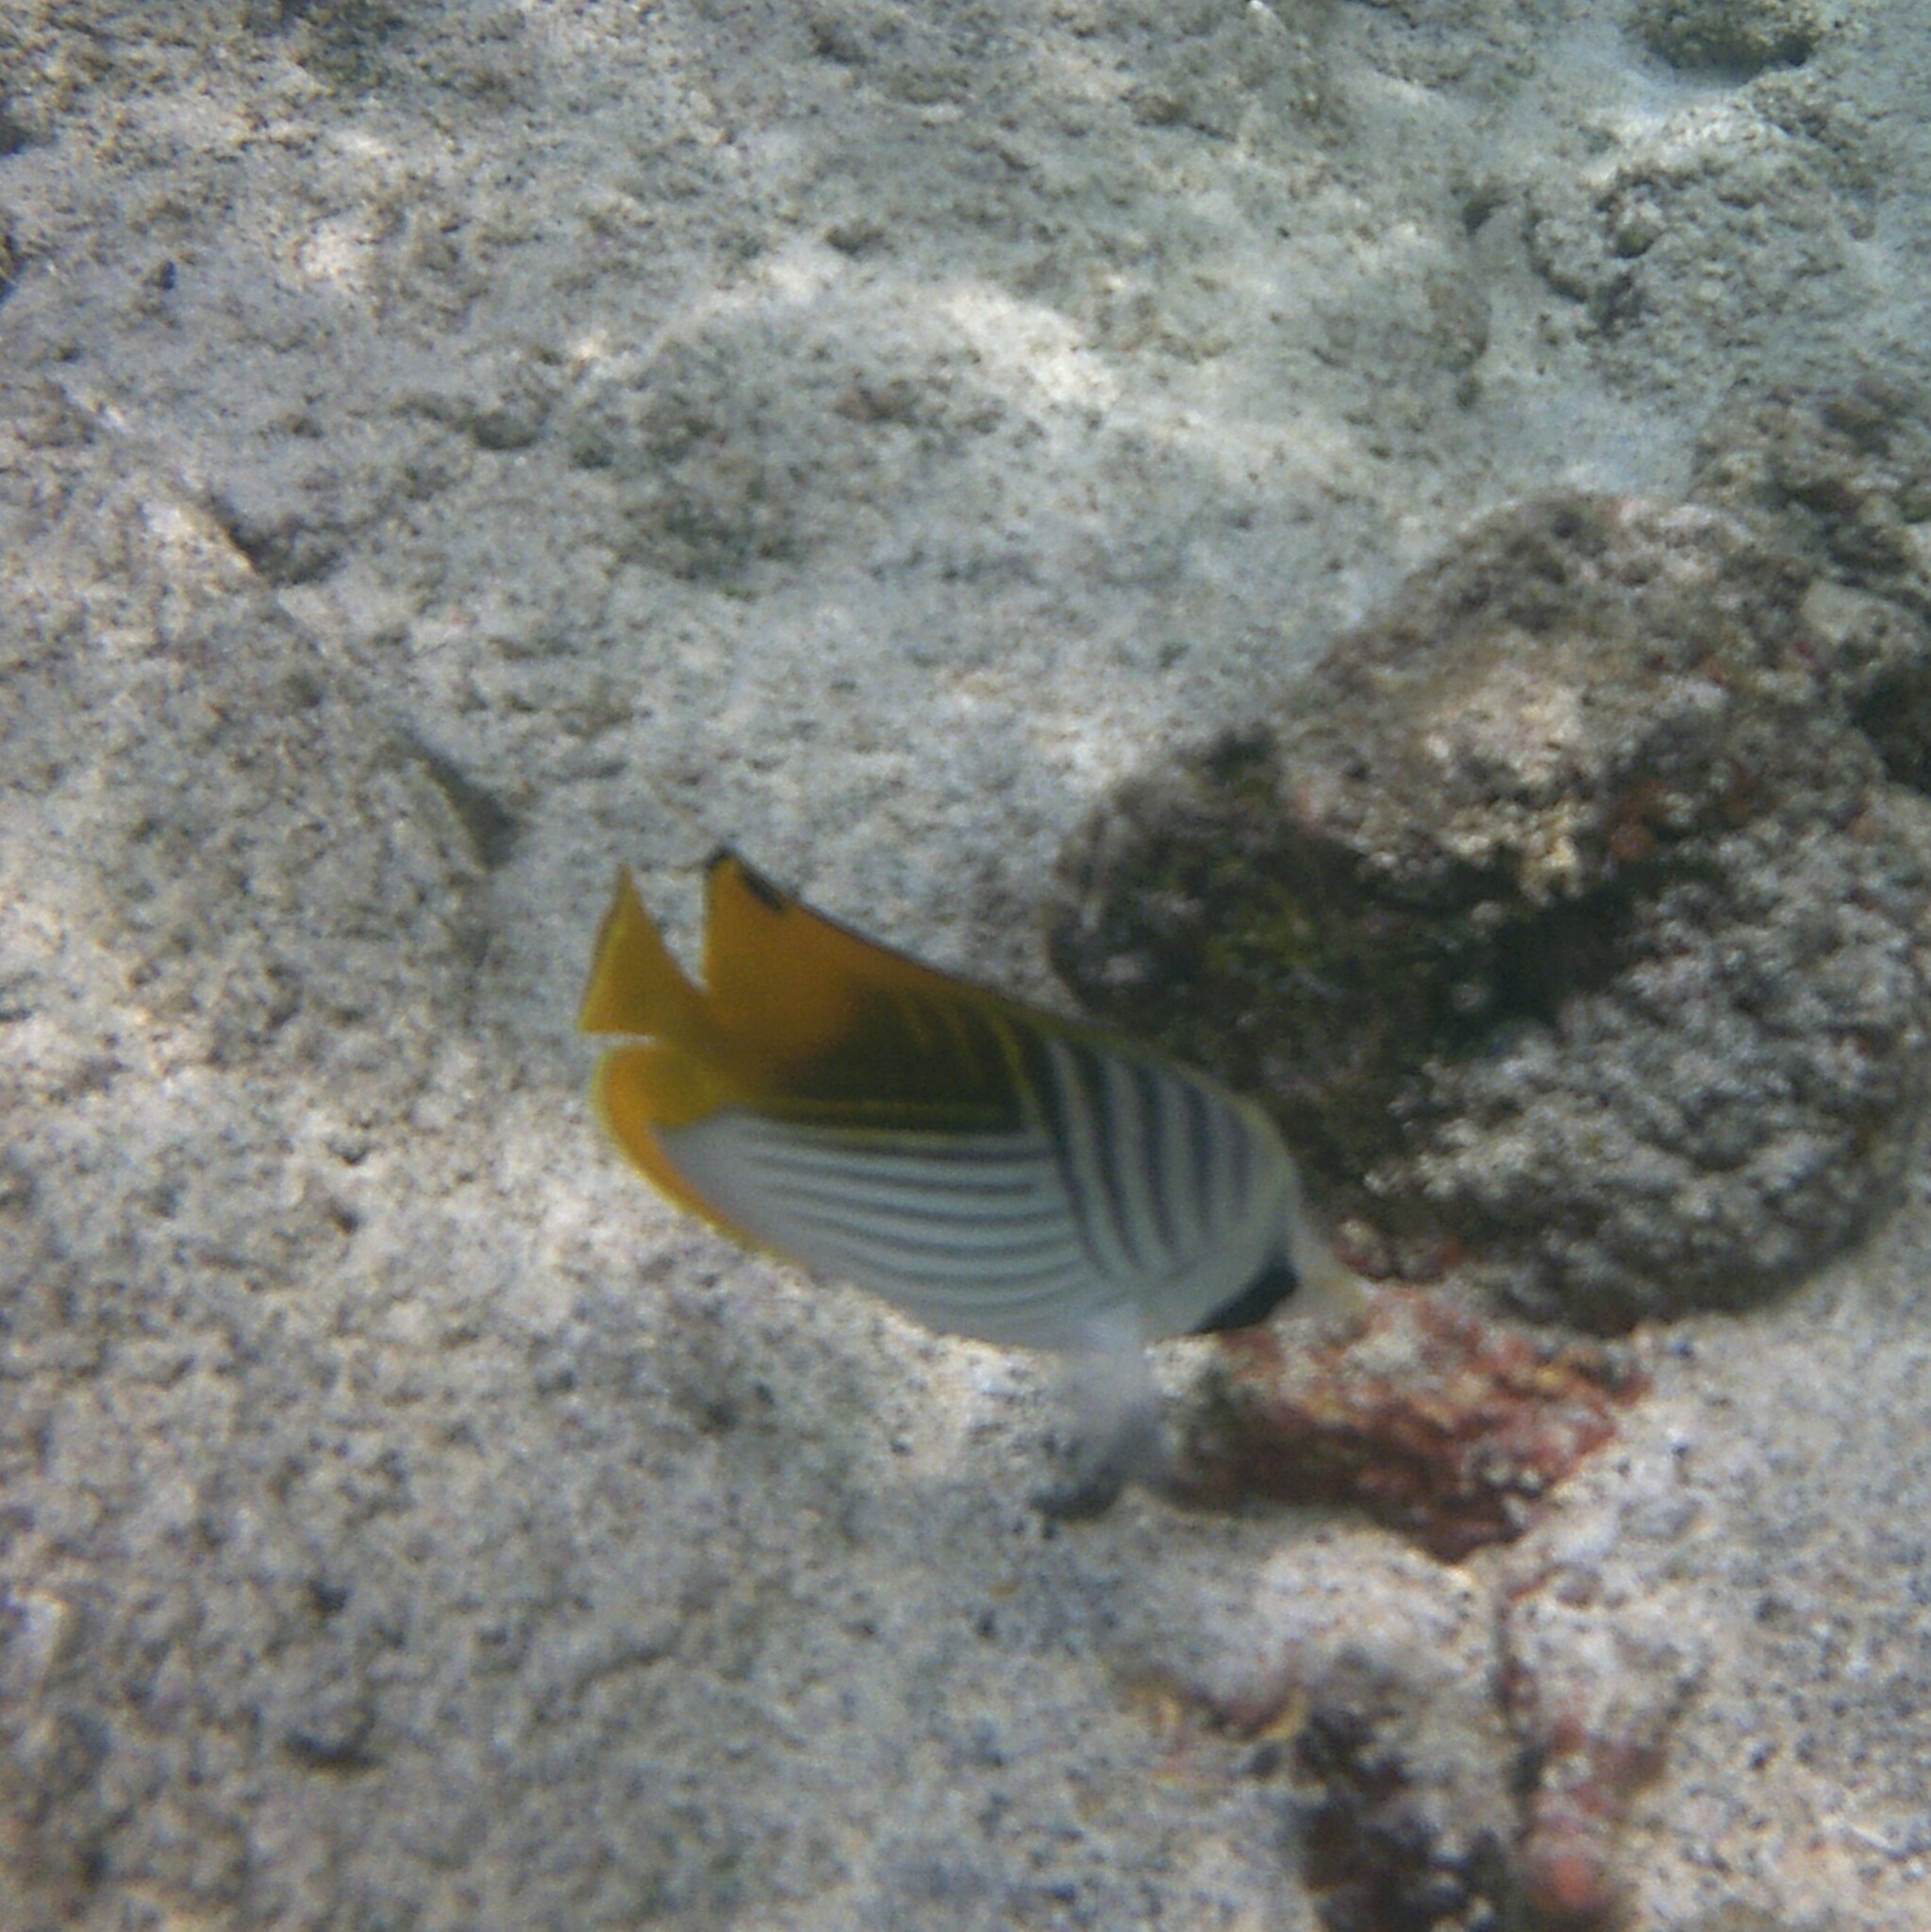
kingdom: Animalia
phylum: Chordata
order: Perciformes
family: Chaetodontidae
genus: Chaetodon
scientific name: Chaetodon auriga
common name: Threadfin butterflyfish
